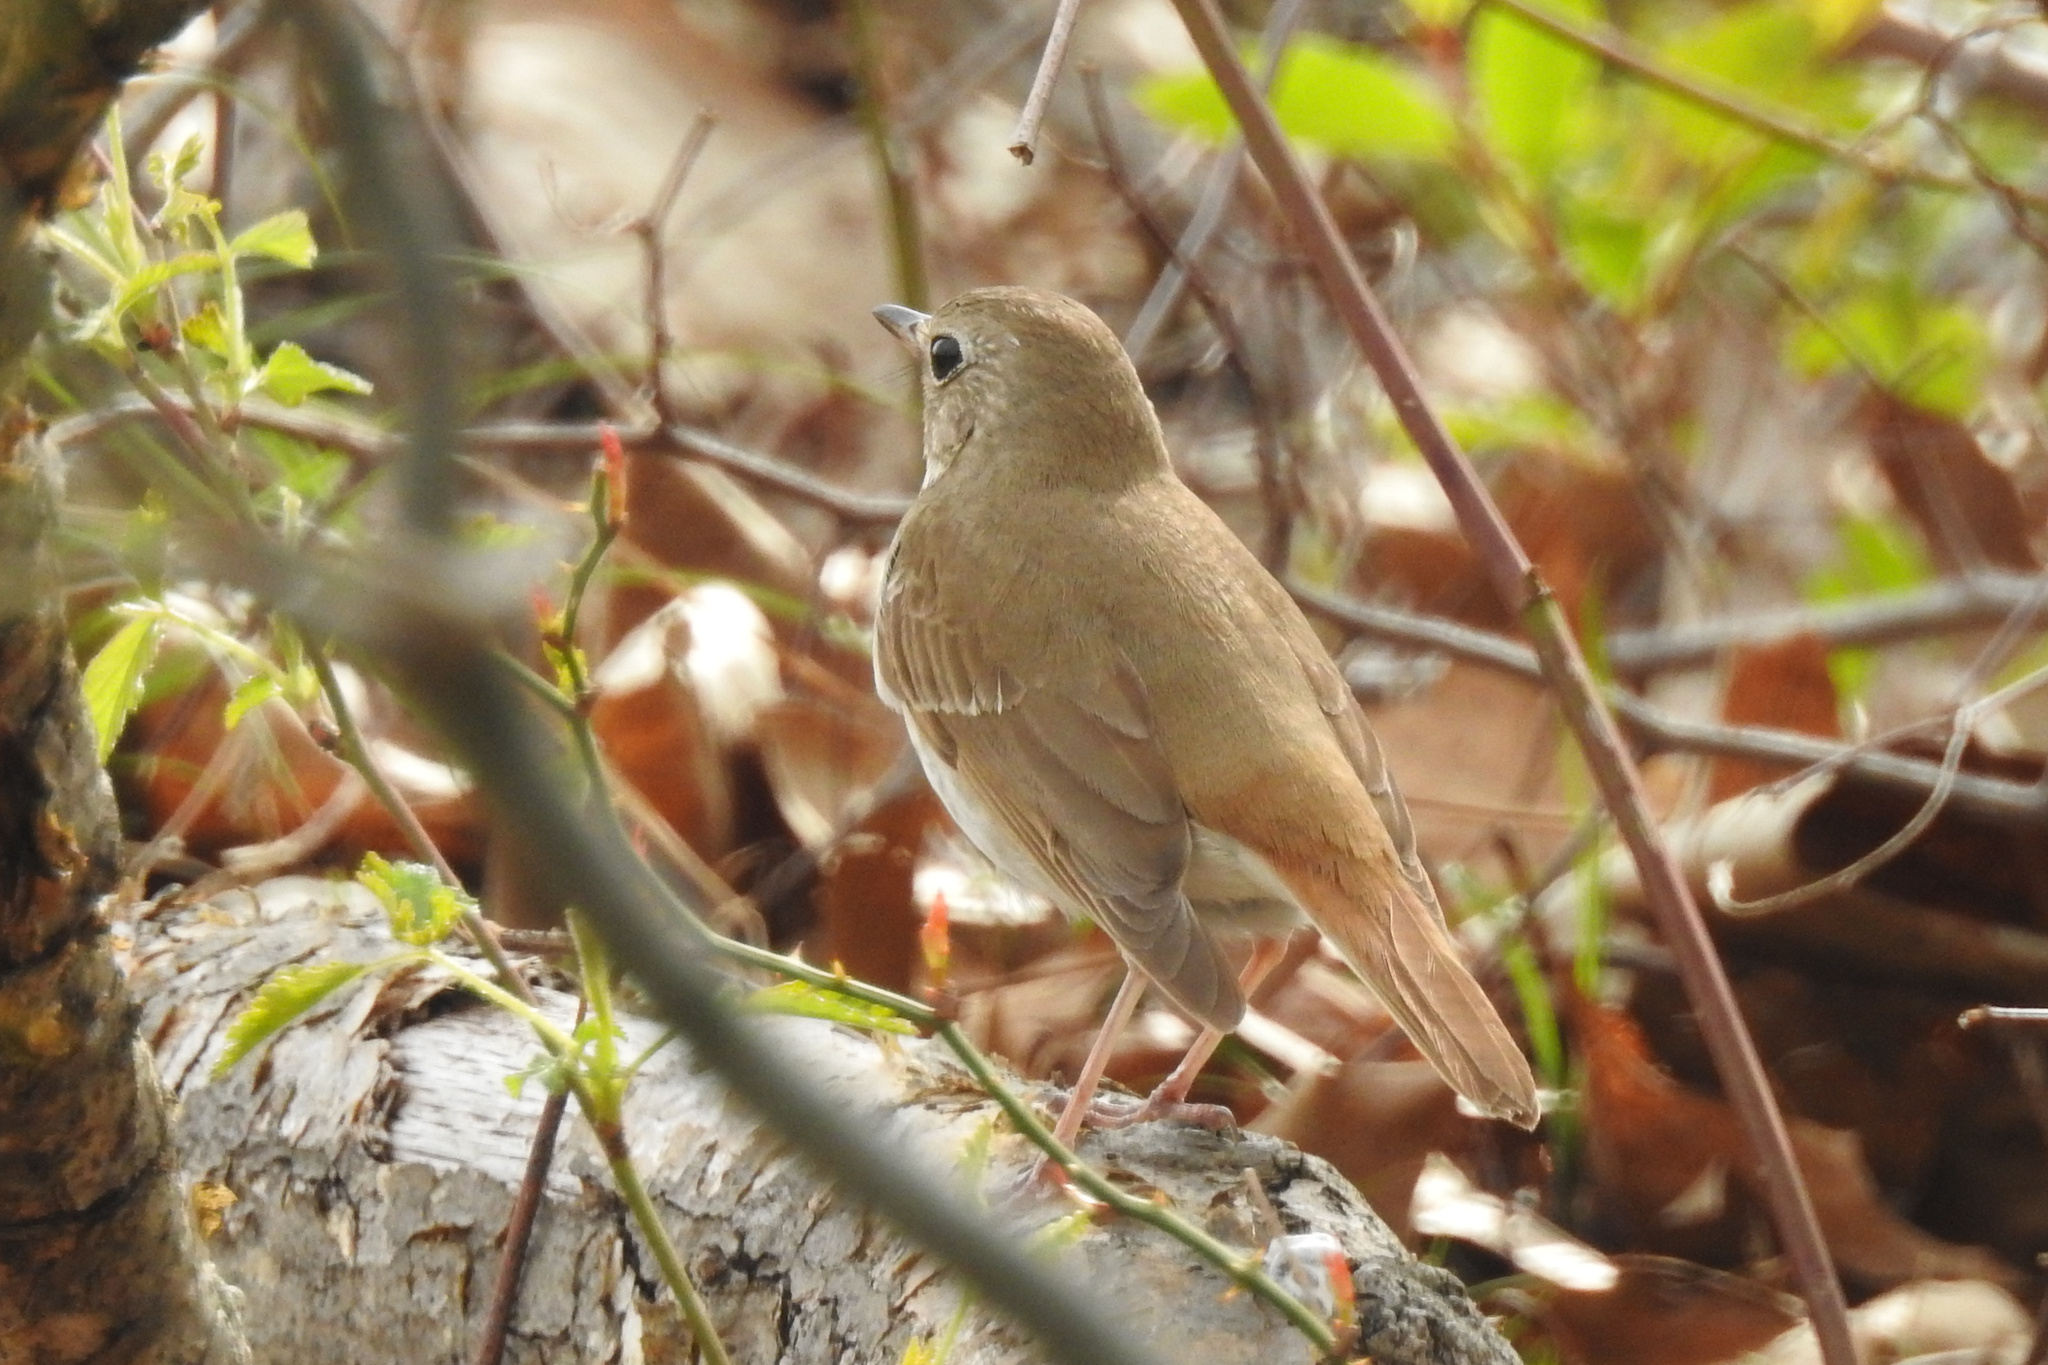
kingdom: Animalia
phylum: Chordata
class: Aves
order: Passeriformes
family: Turdidae
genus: Catharus
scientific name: Catharus guttatus
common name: Hermit thrush
